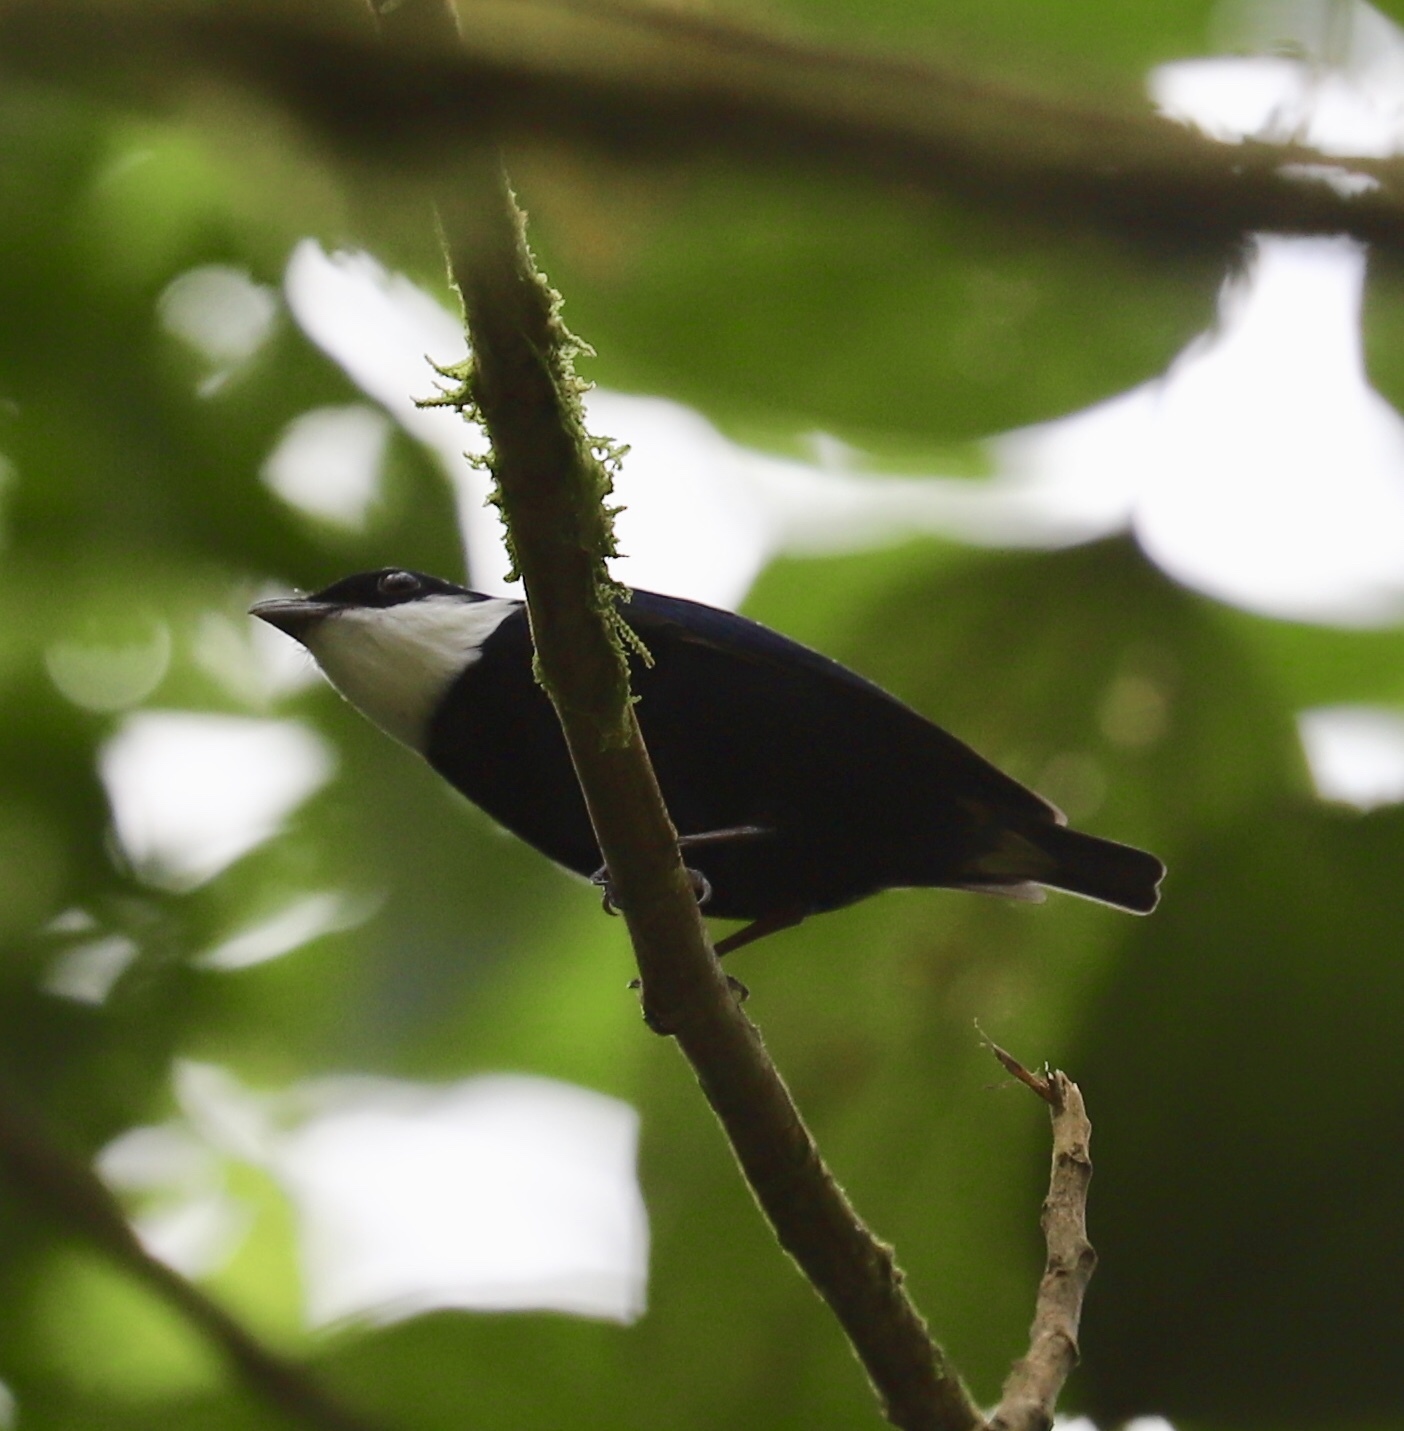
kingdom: Animalia
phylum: Chordata
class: Aves
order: Passeriformes
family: Pipridae
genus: Corapipo
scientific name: Corapipo altera
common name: White-ruffed manakin
